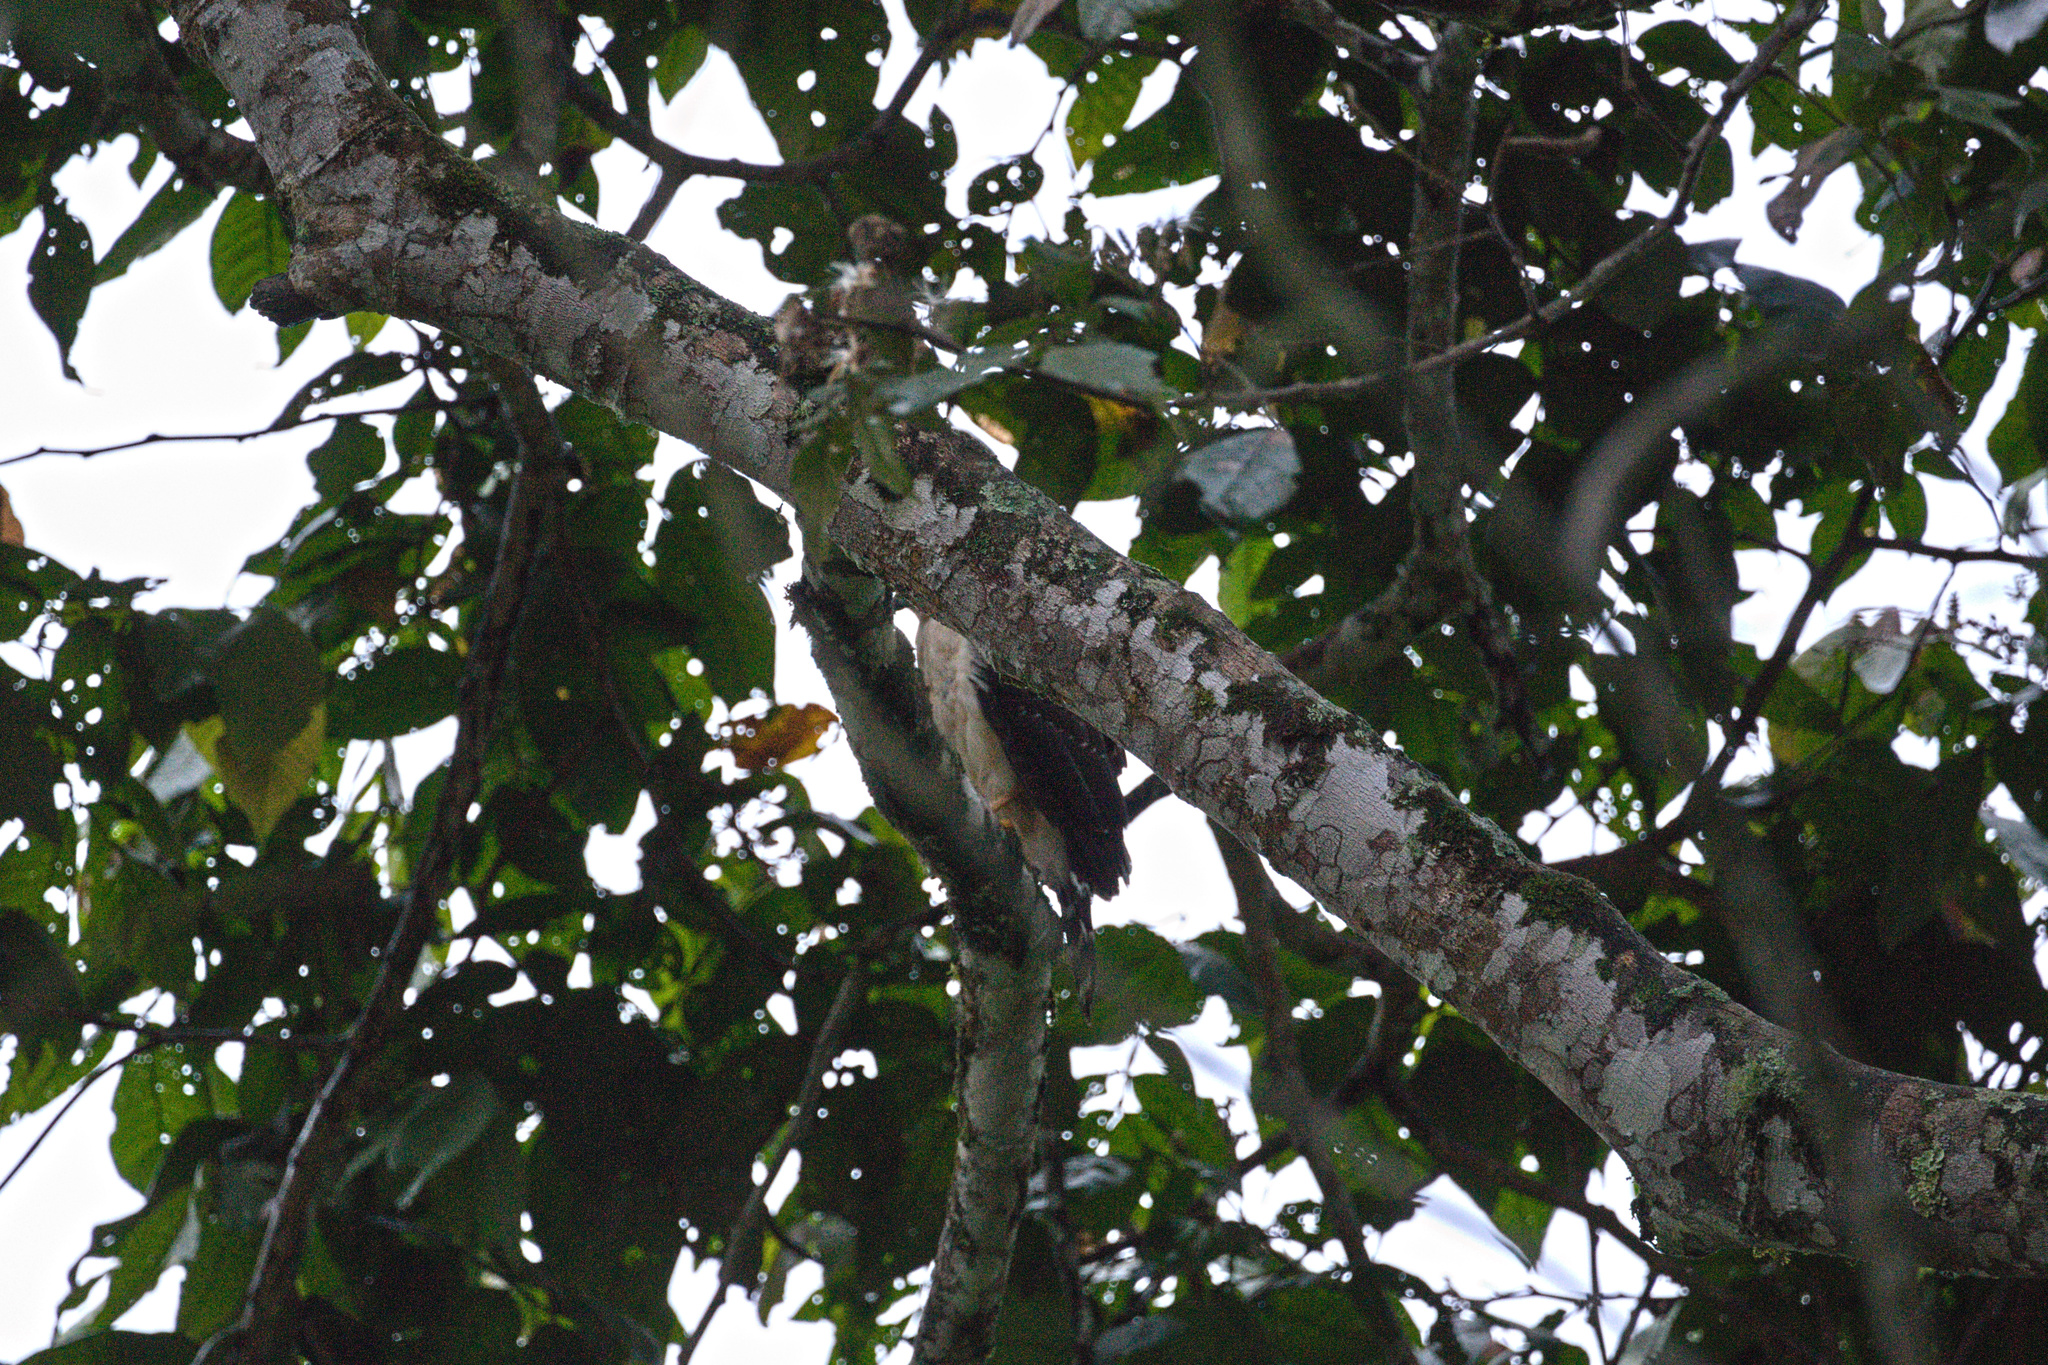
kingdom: Animalia
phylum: Chordata
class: Aves
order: Accipitriformes
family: Accipitridae
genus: Accipiter
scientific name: Accipiter bicolor
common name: Bicolored hawk
